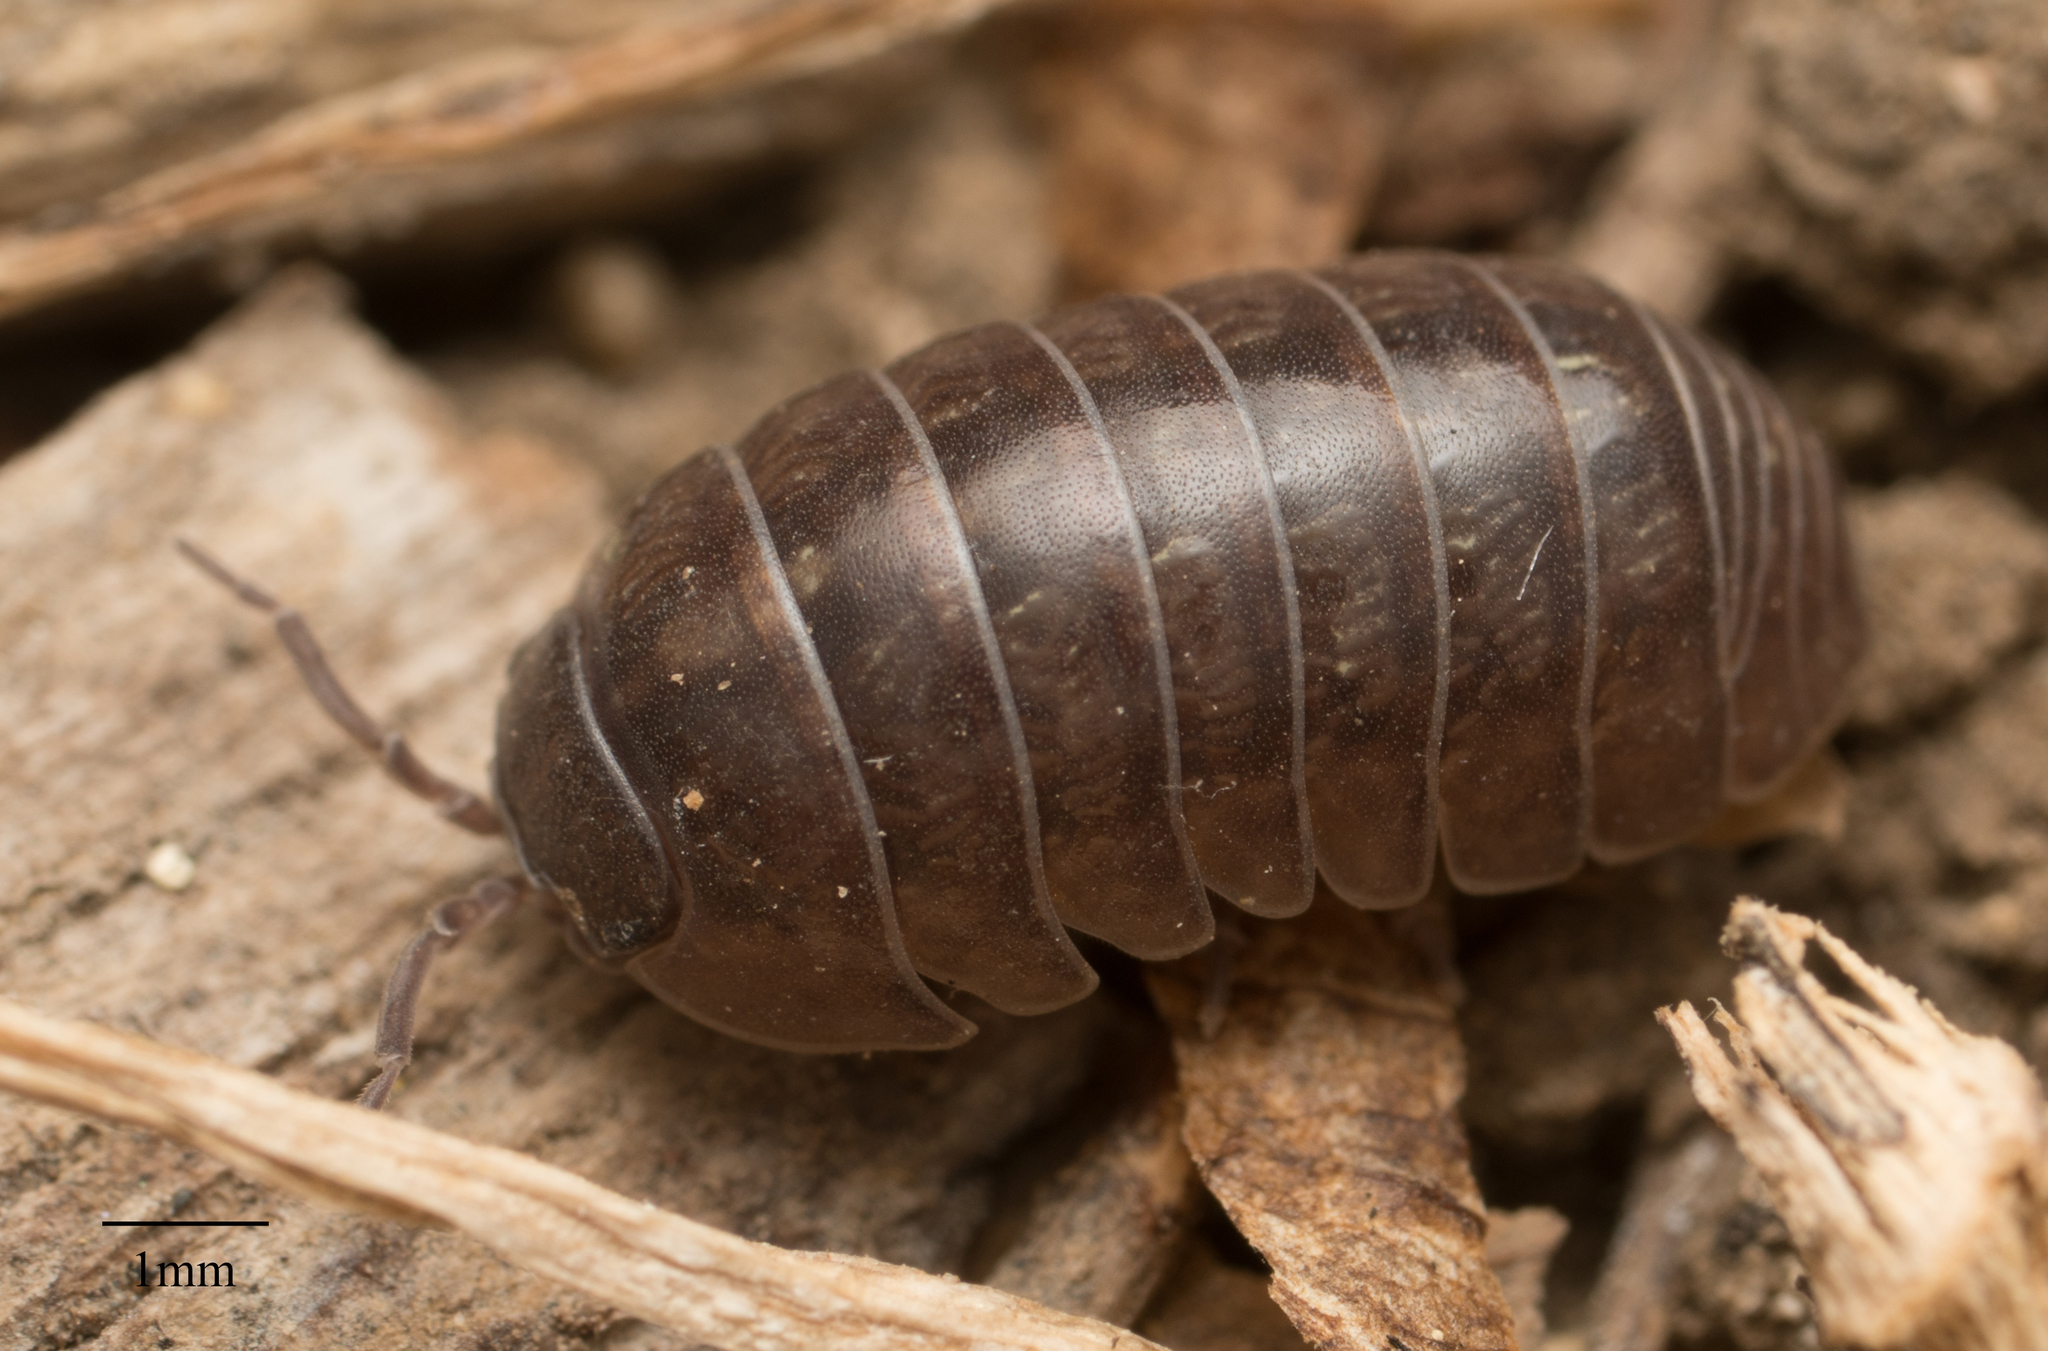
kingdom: Animalia
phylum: Arthropoda
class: Malacostraca
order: Isopoda
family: Armadillidiidae
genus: Armadillidium
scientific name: Armadillidium vulgare
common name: Common pill woodlouse
